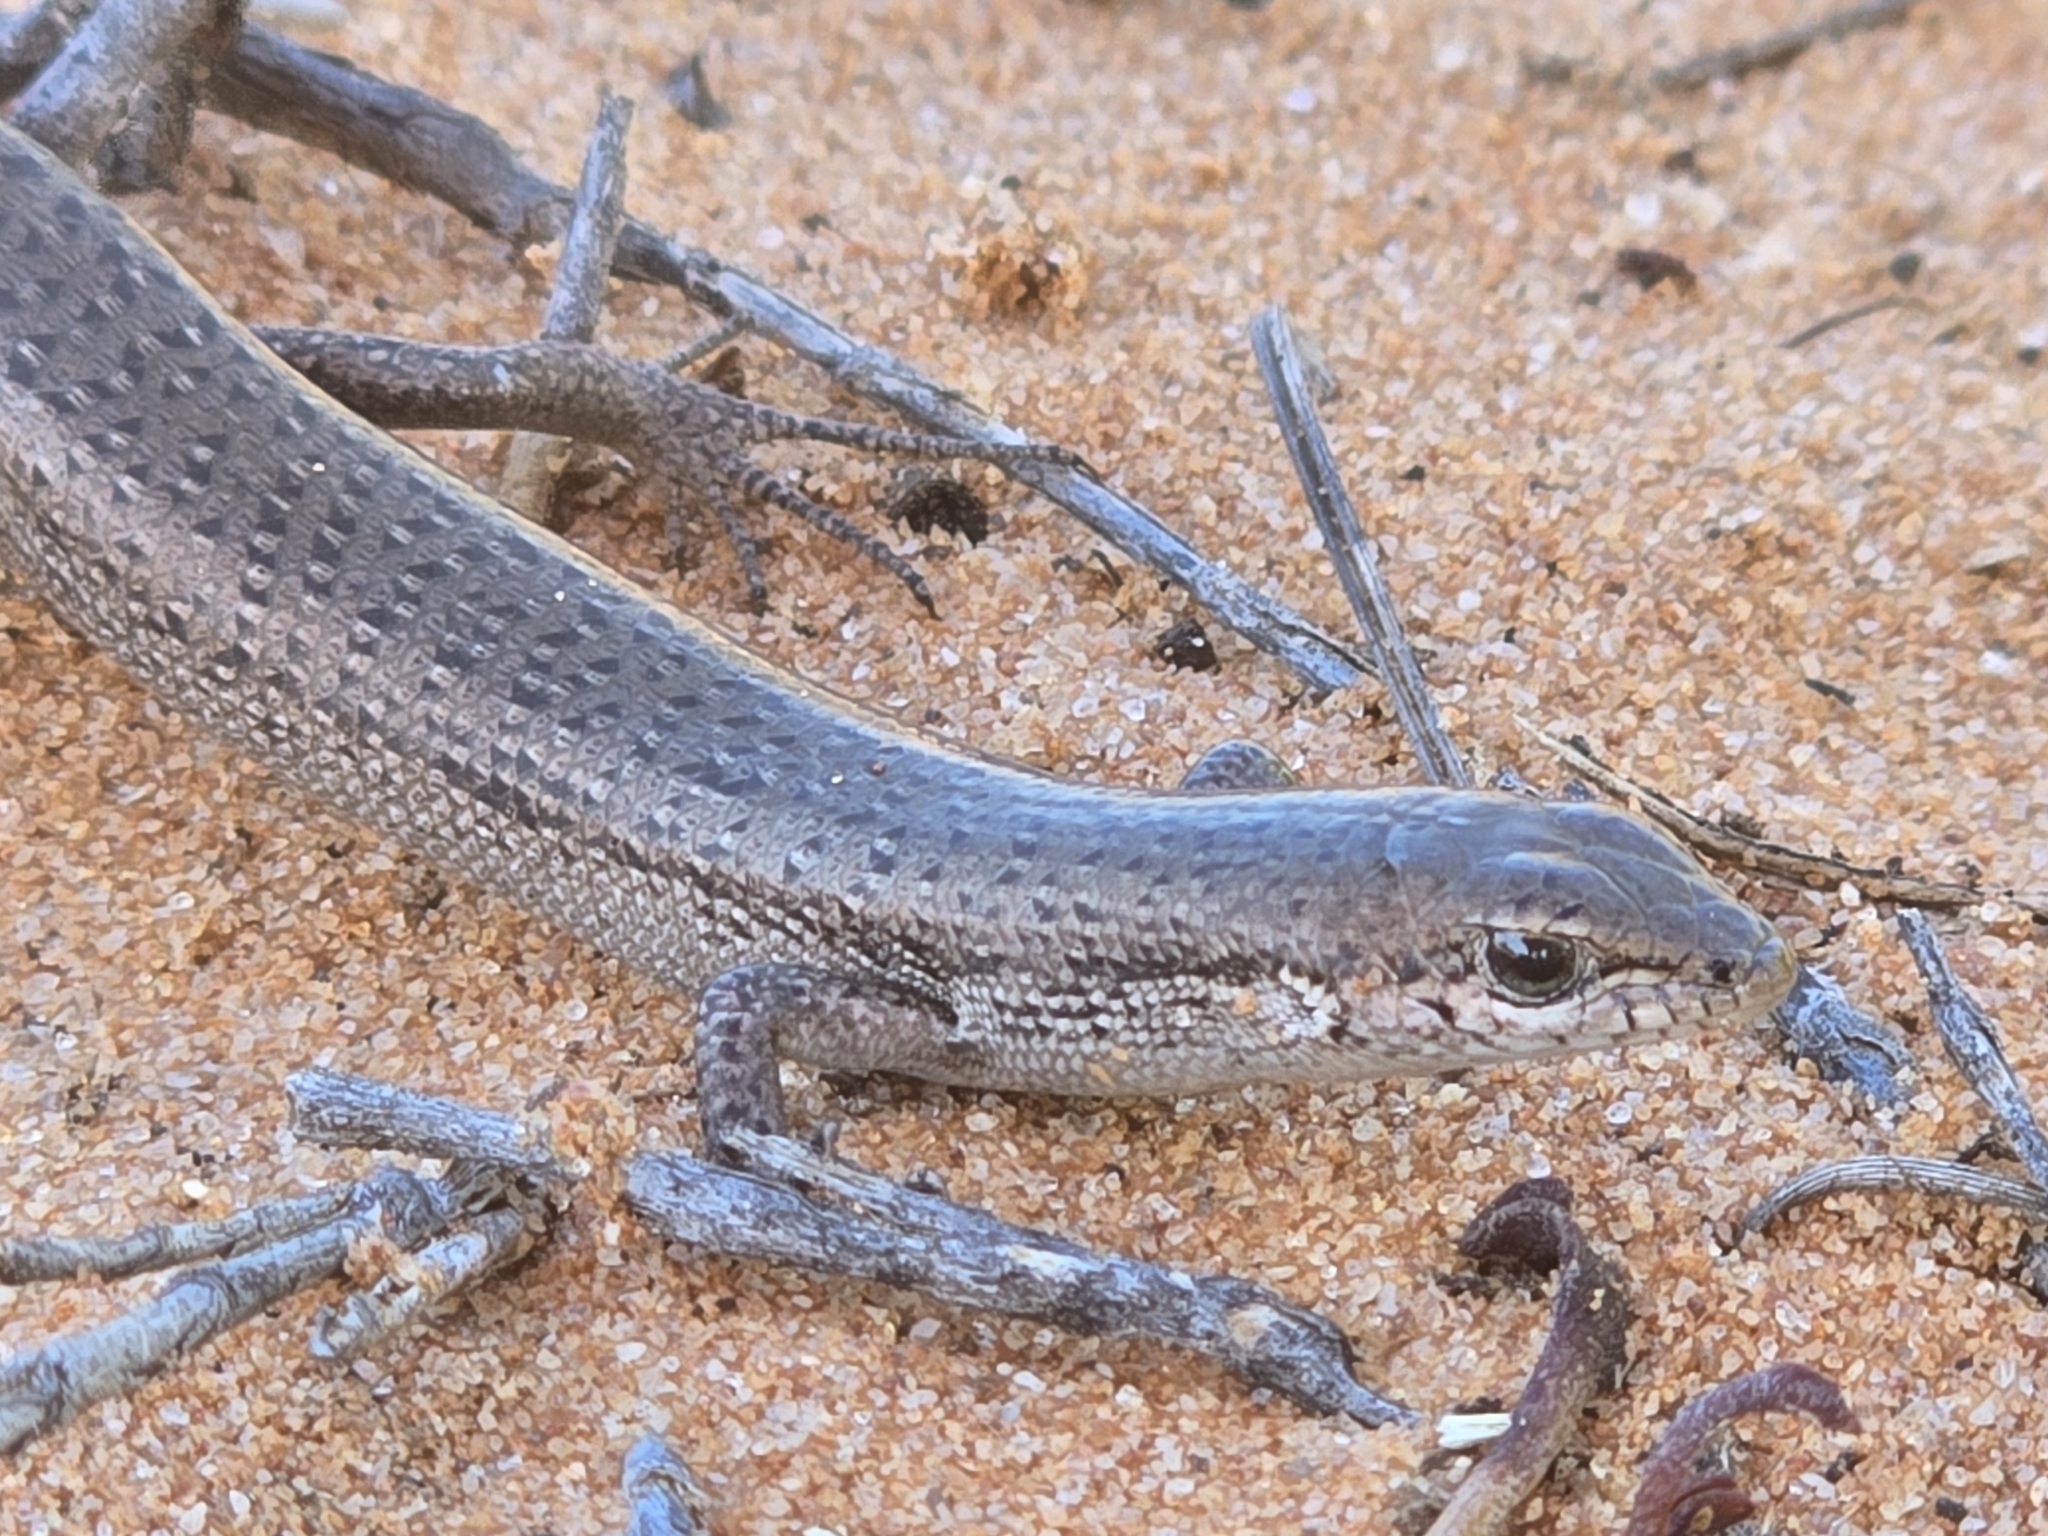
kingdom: Animalia
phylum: Chordata
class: Squamata
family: Scincidae
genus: Morethia
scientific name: Morethia obscura
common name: Shrubland morethia skink
